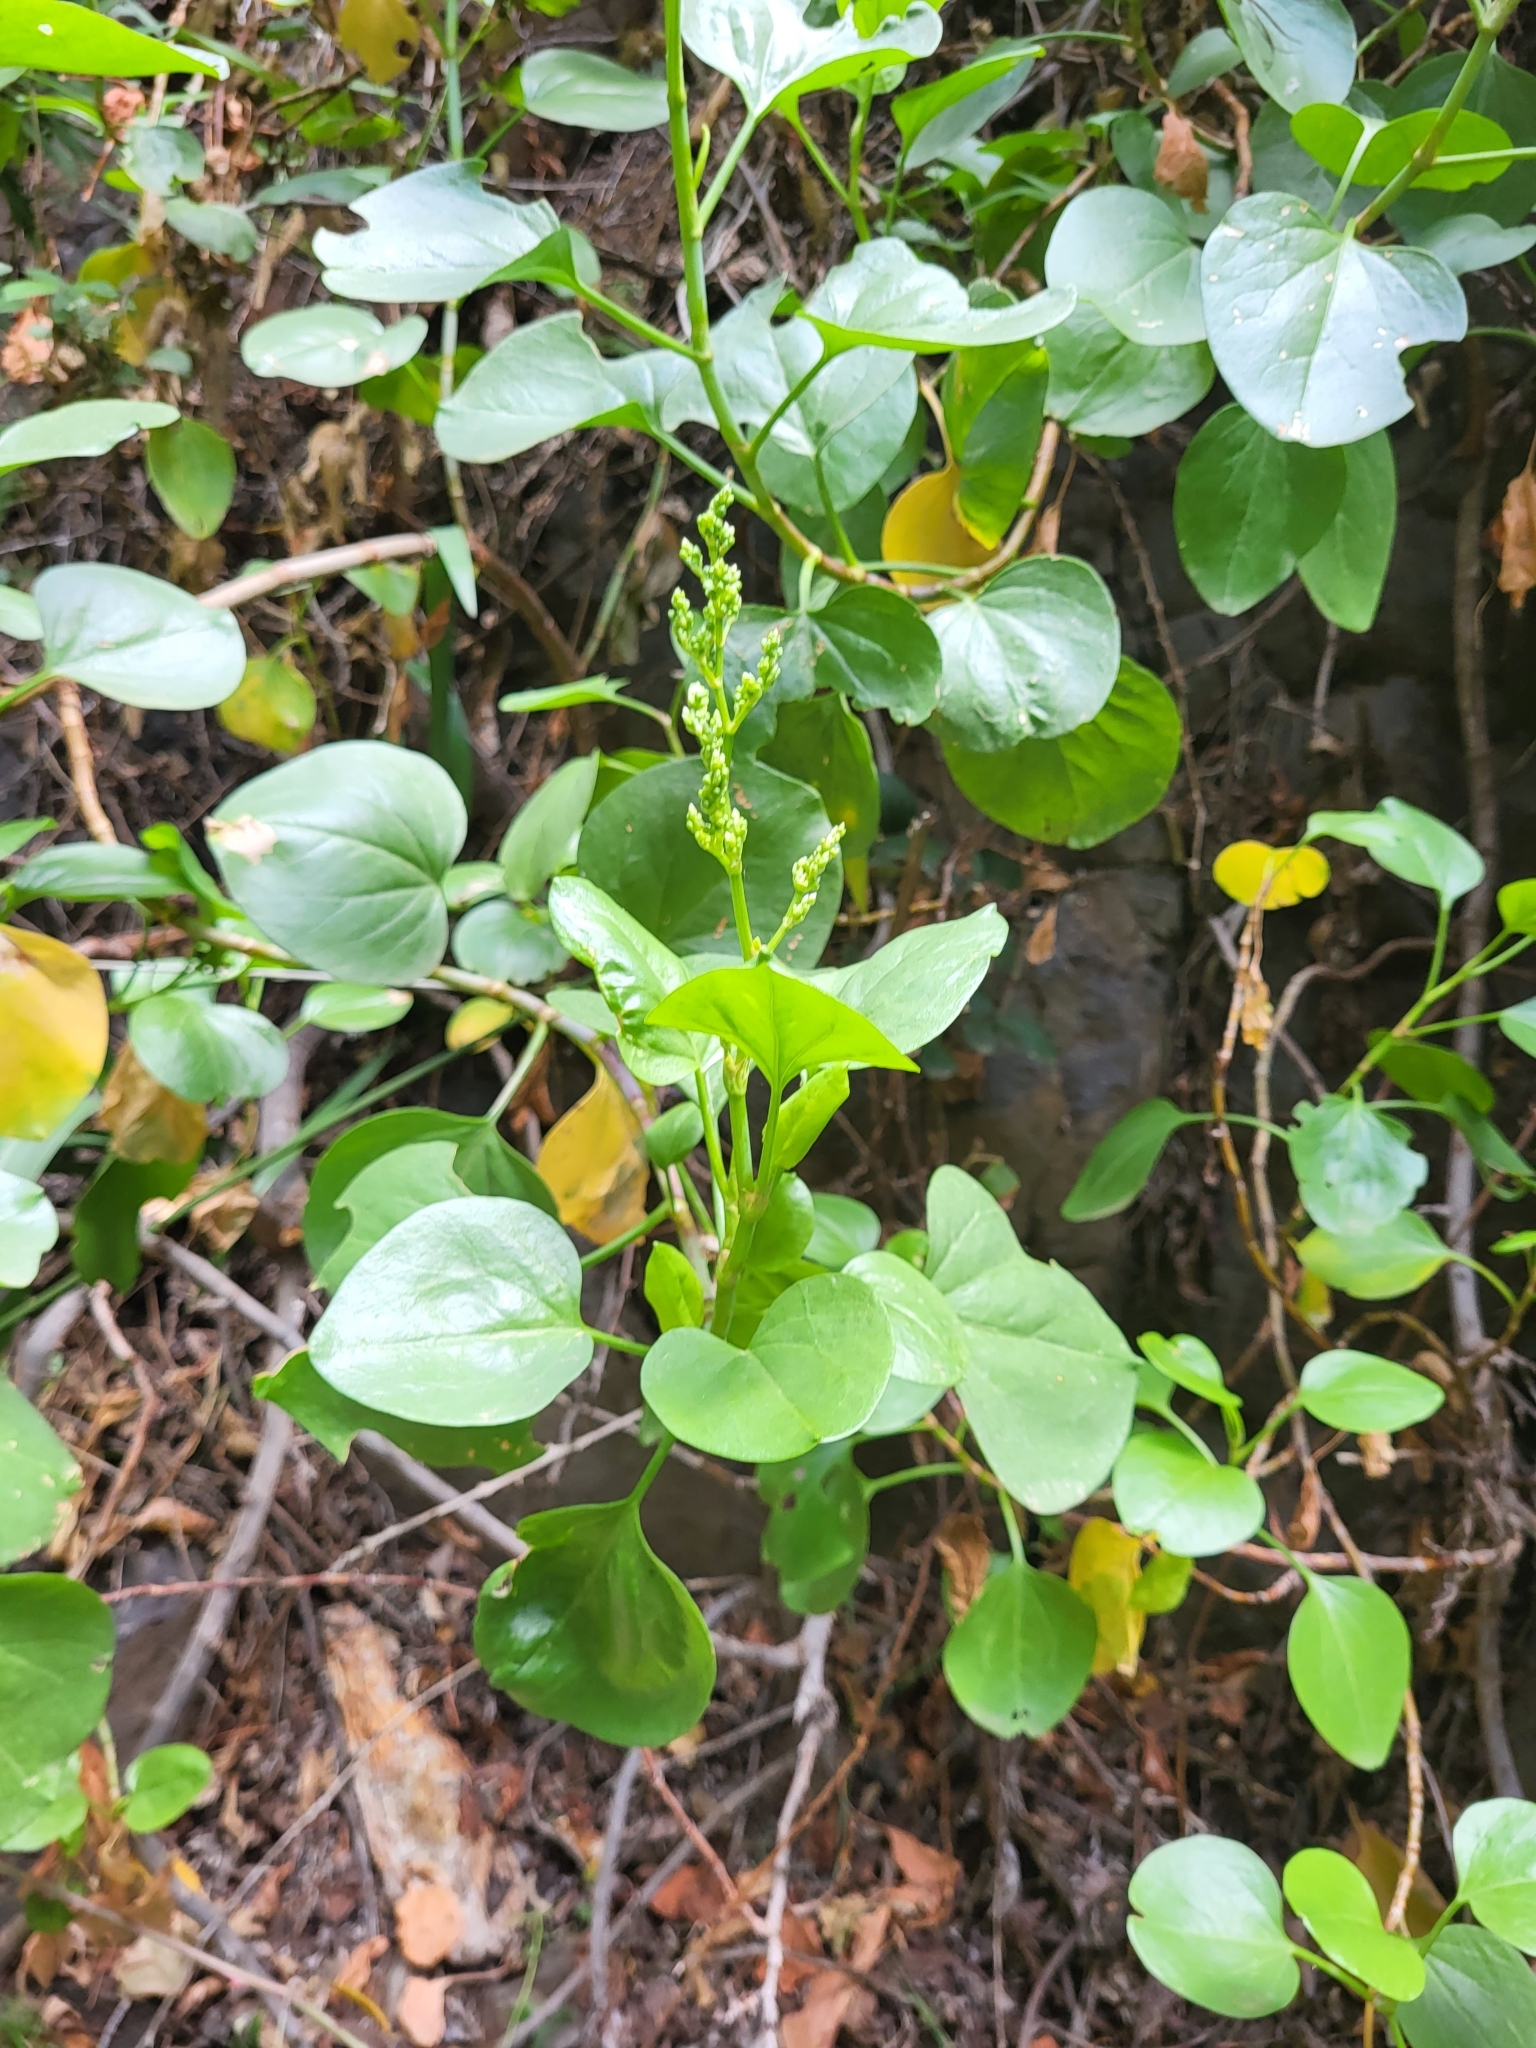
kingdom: Plantae
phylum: Tracheophyta
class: Magnoliopsida
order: Caryophyllales
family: Polygonaceae
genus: Rumex
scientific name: Rumex lunaria
